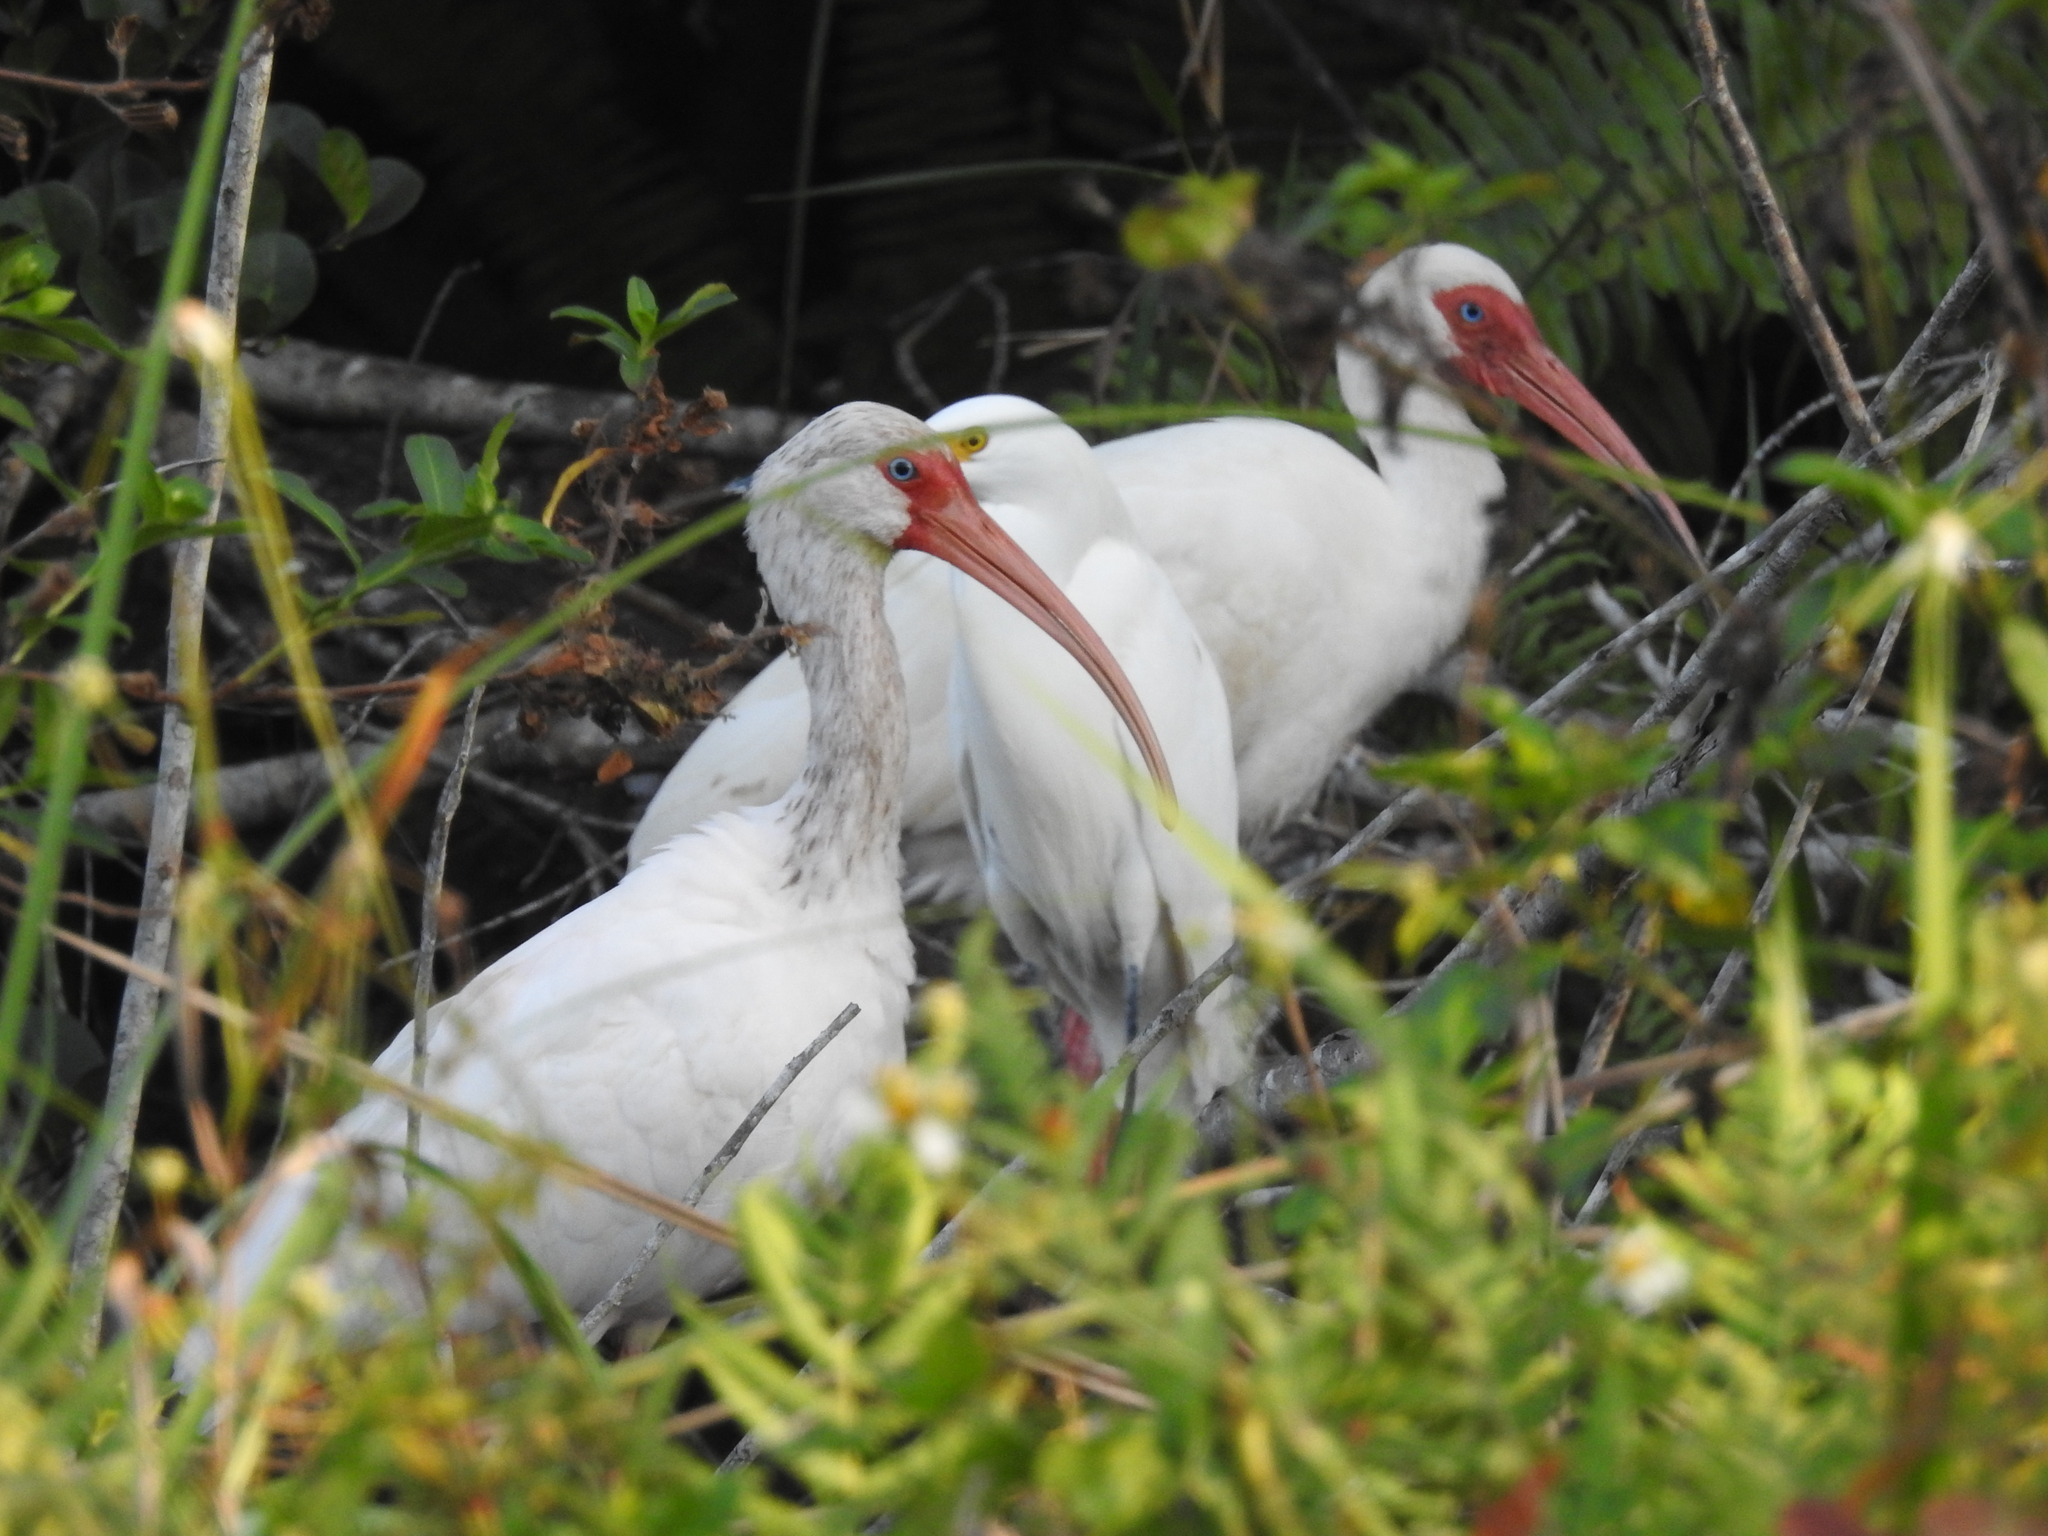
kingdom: Animalia
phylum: Chordata
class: Aves
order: Pelecaniformes
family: Threskiornithidae
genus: Eudocimus
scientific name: Eudocimus albus
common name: White ibis
